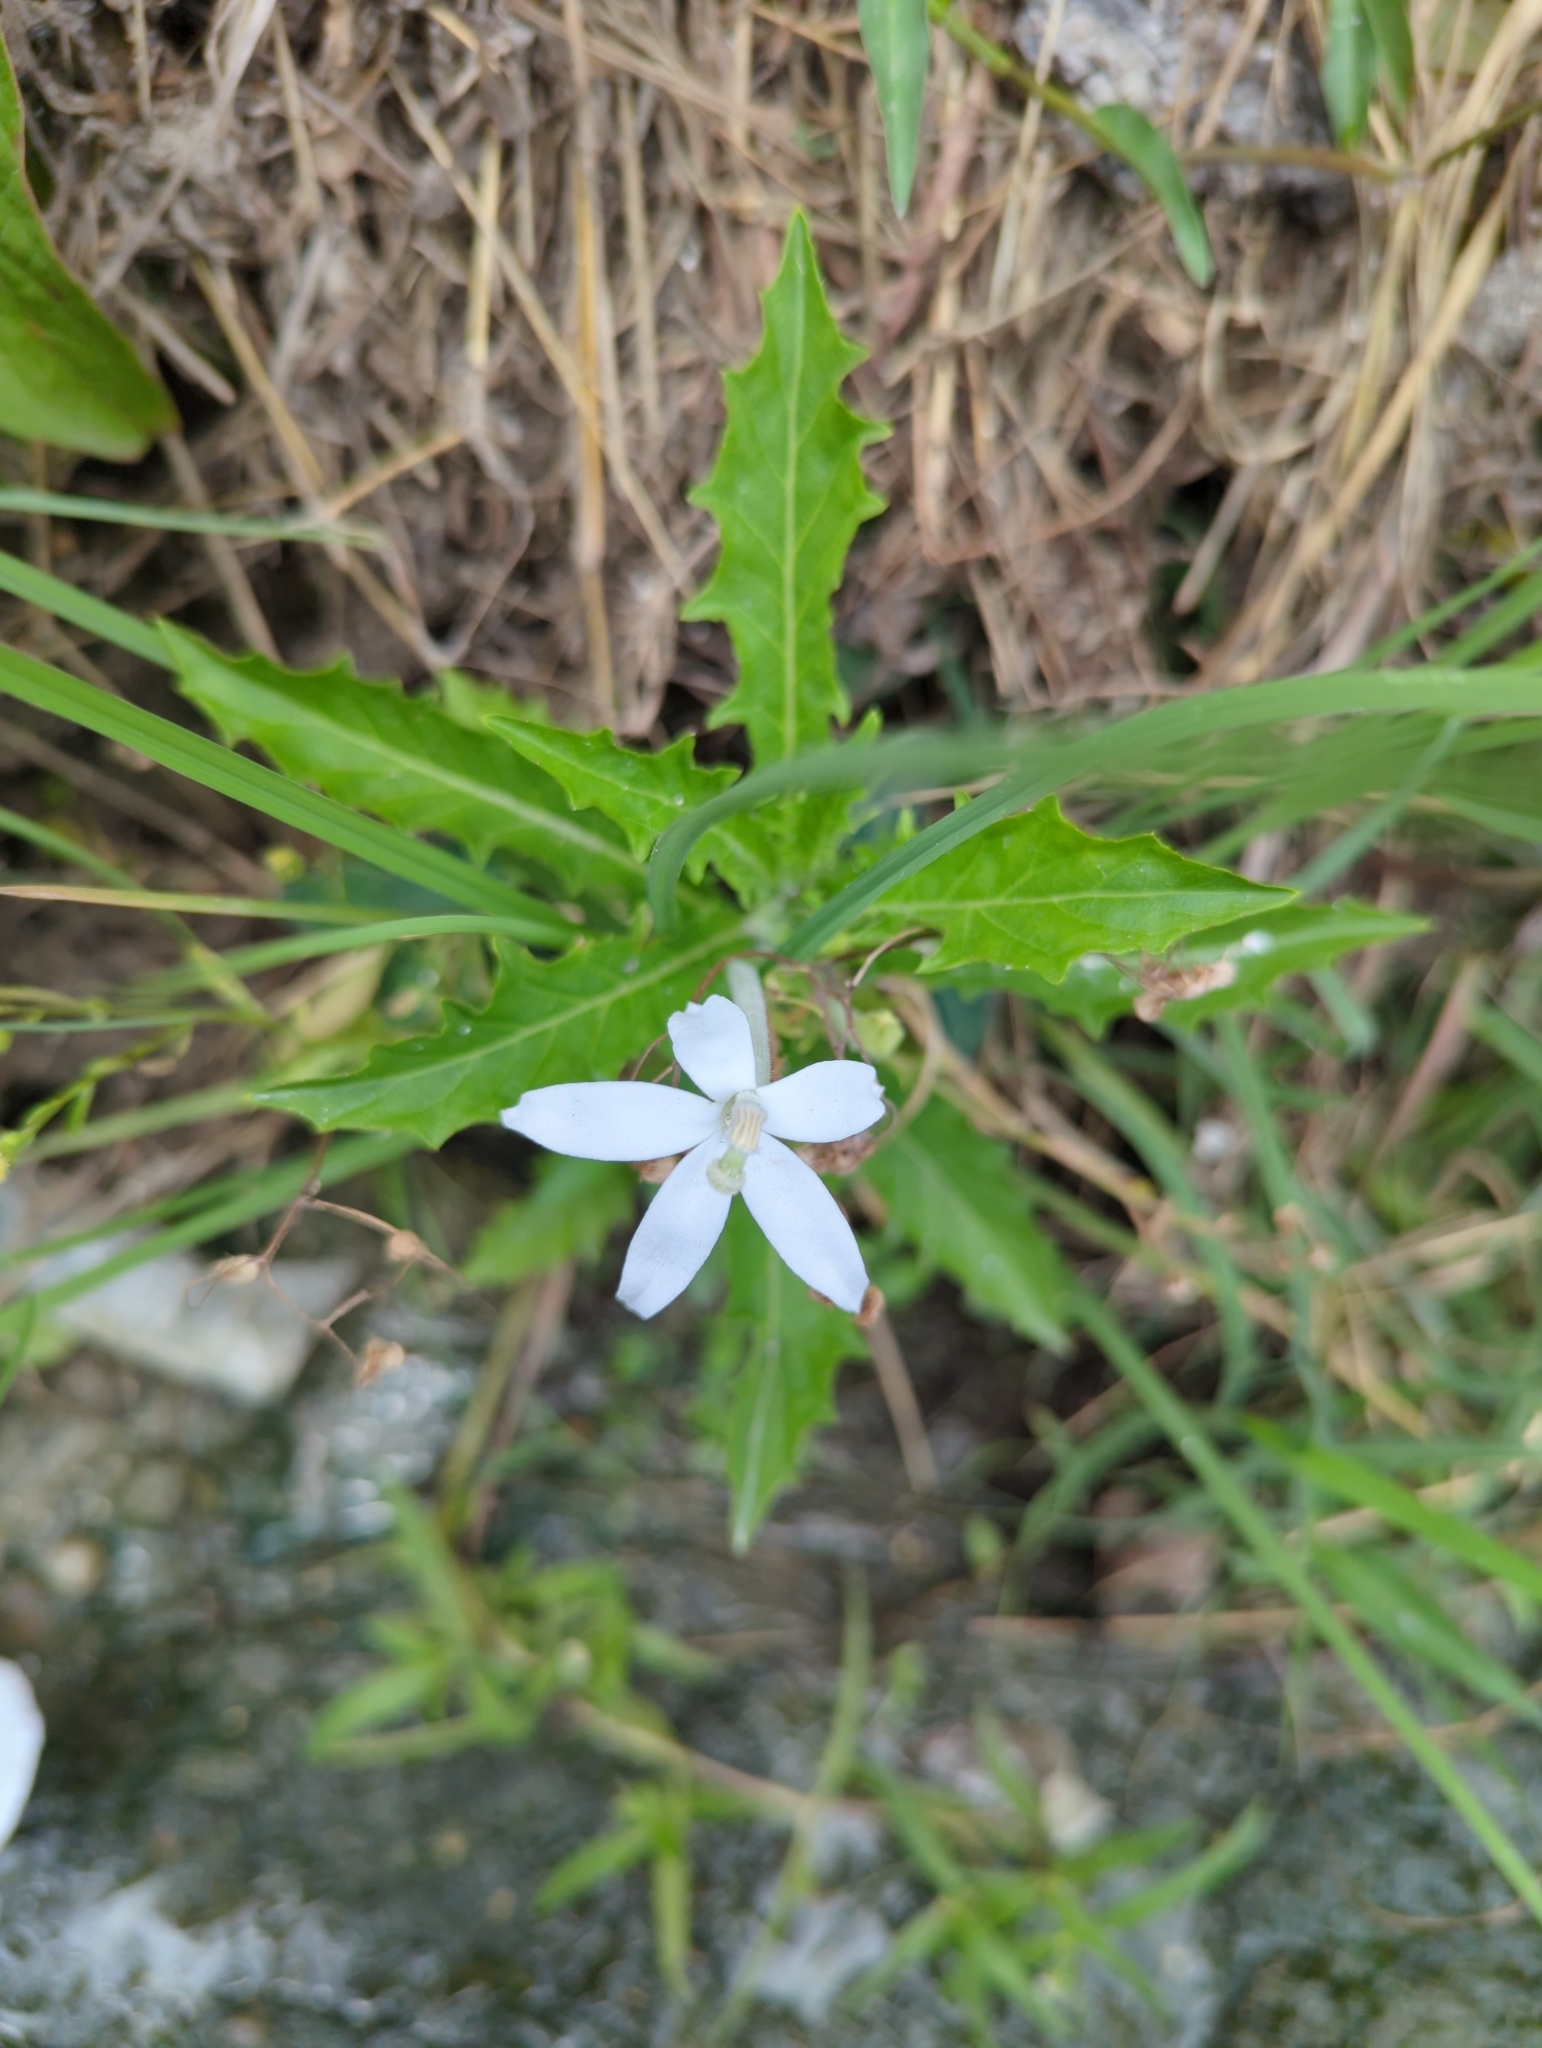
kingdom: Plantae
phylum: Tracheophyta
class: Magnoliopsida
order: Asterales
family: Campanulaceae
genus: Hippobroma
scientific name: Hippobroma longiflora
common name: Madamfate
